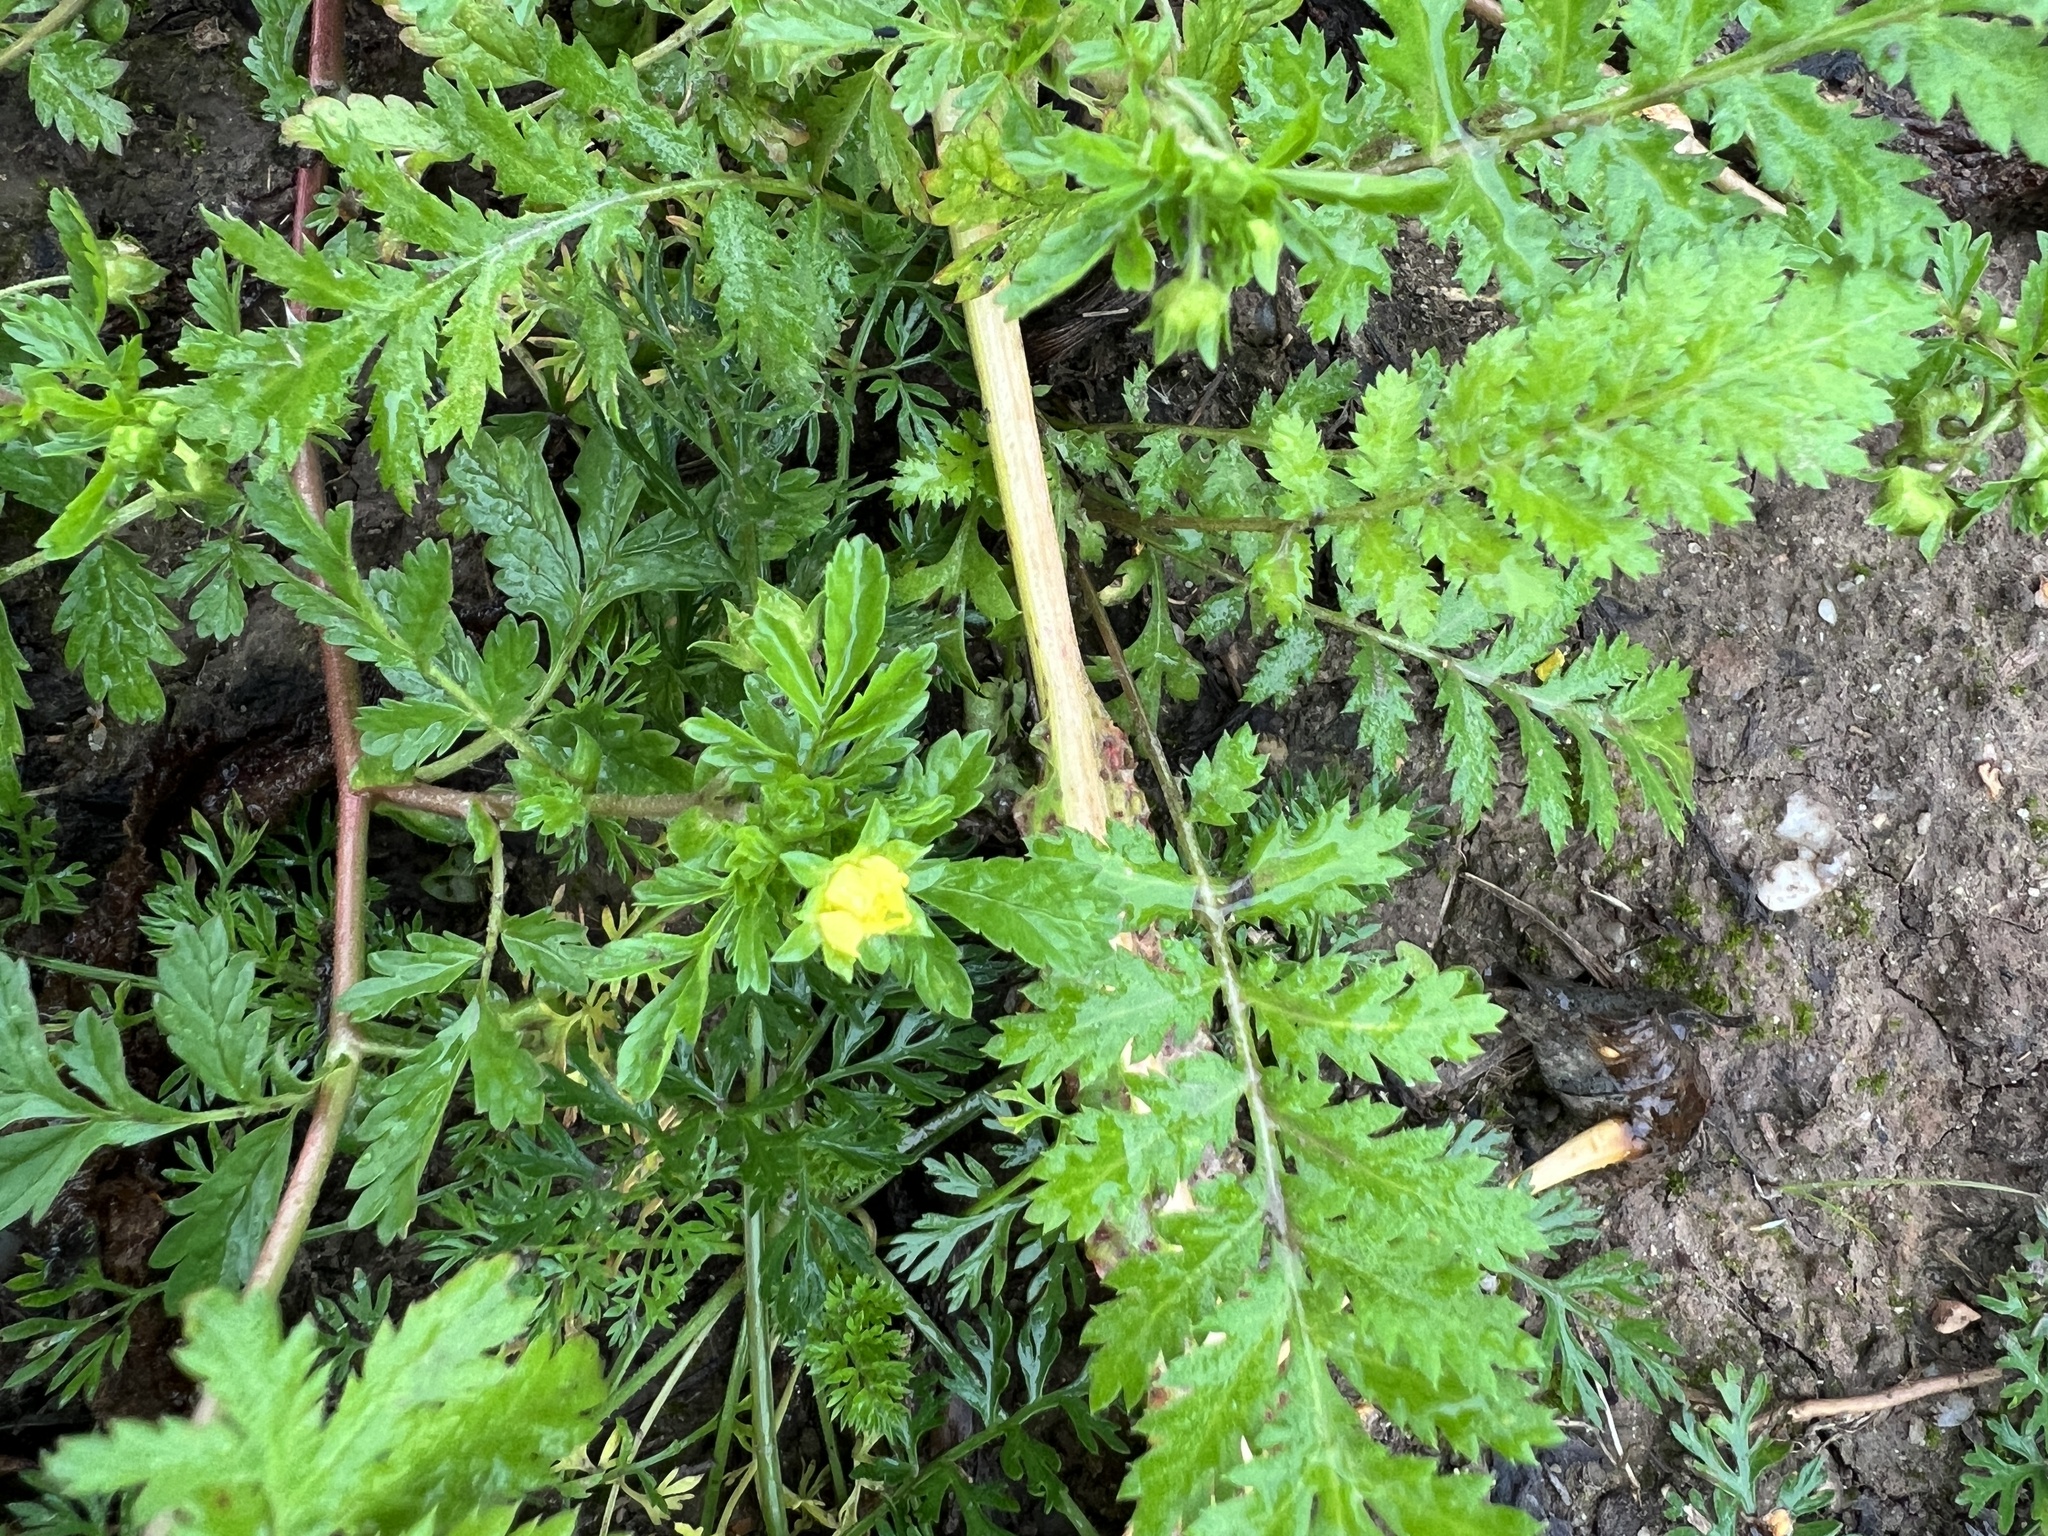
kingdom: Plantae
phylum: Tracheophyta
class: Magnoliopsida
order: Rosales
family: Rosaceae
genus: Potentilla
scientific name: Potentilla supina
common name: Prostrate cinquefoil
